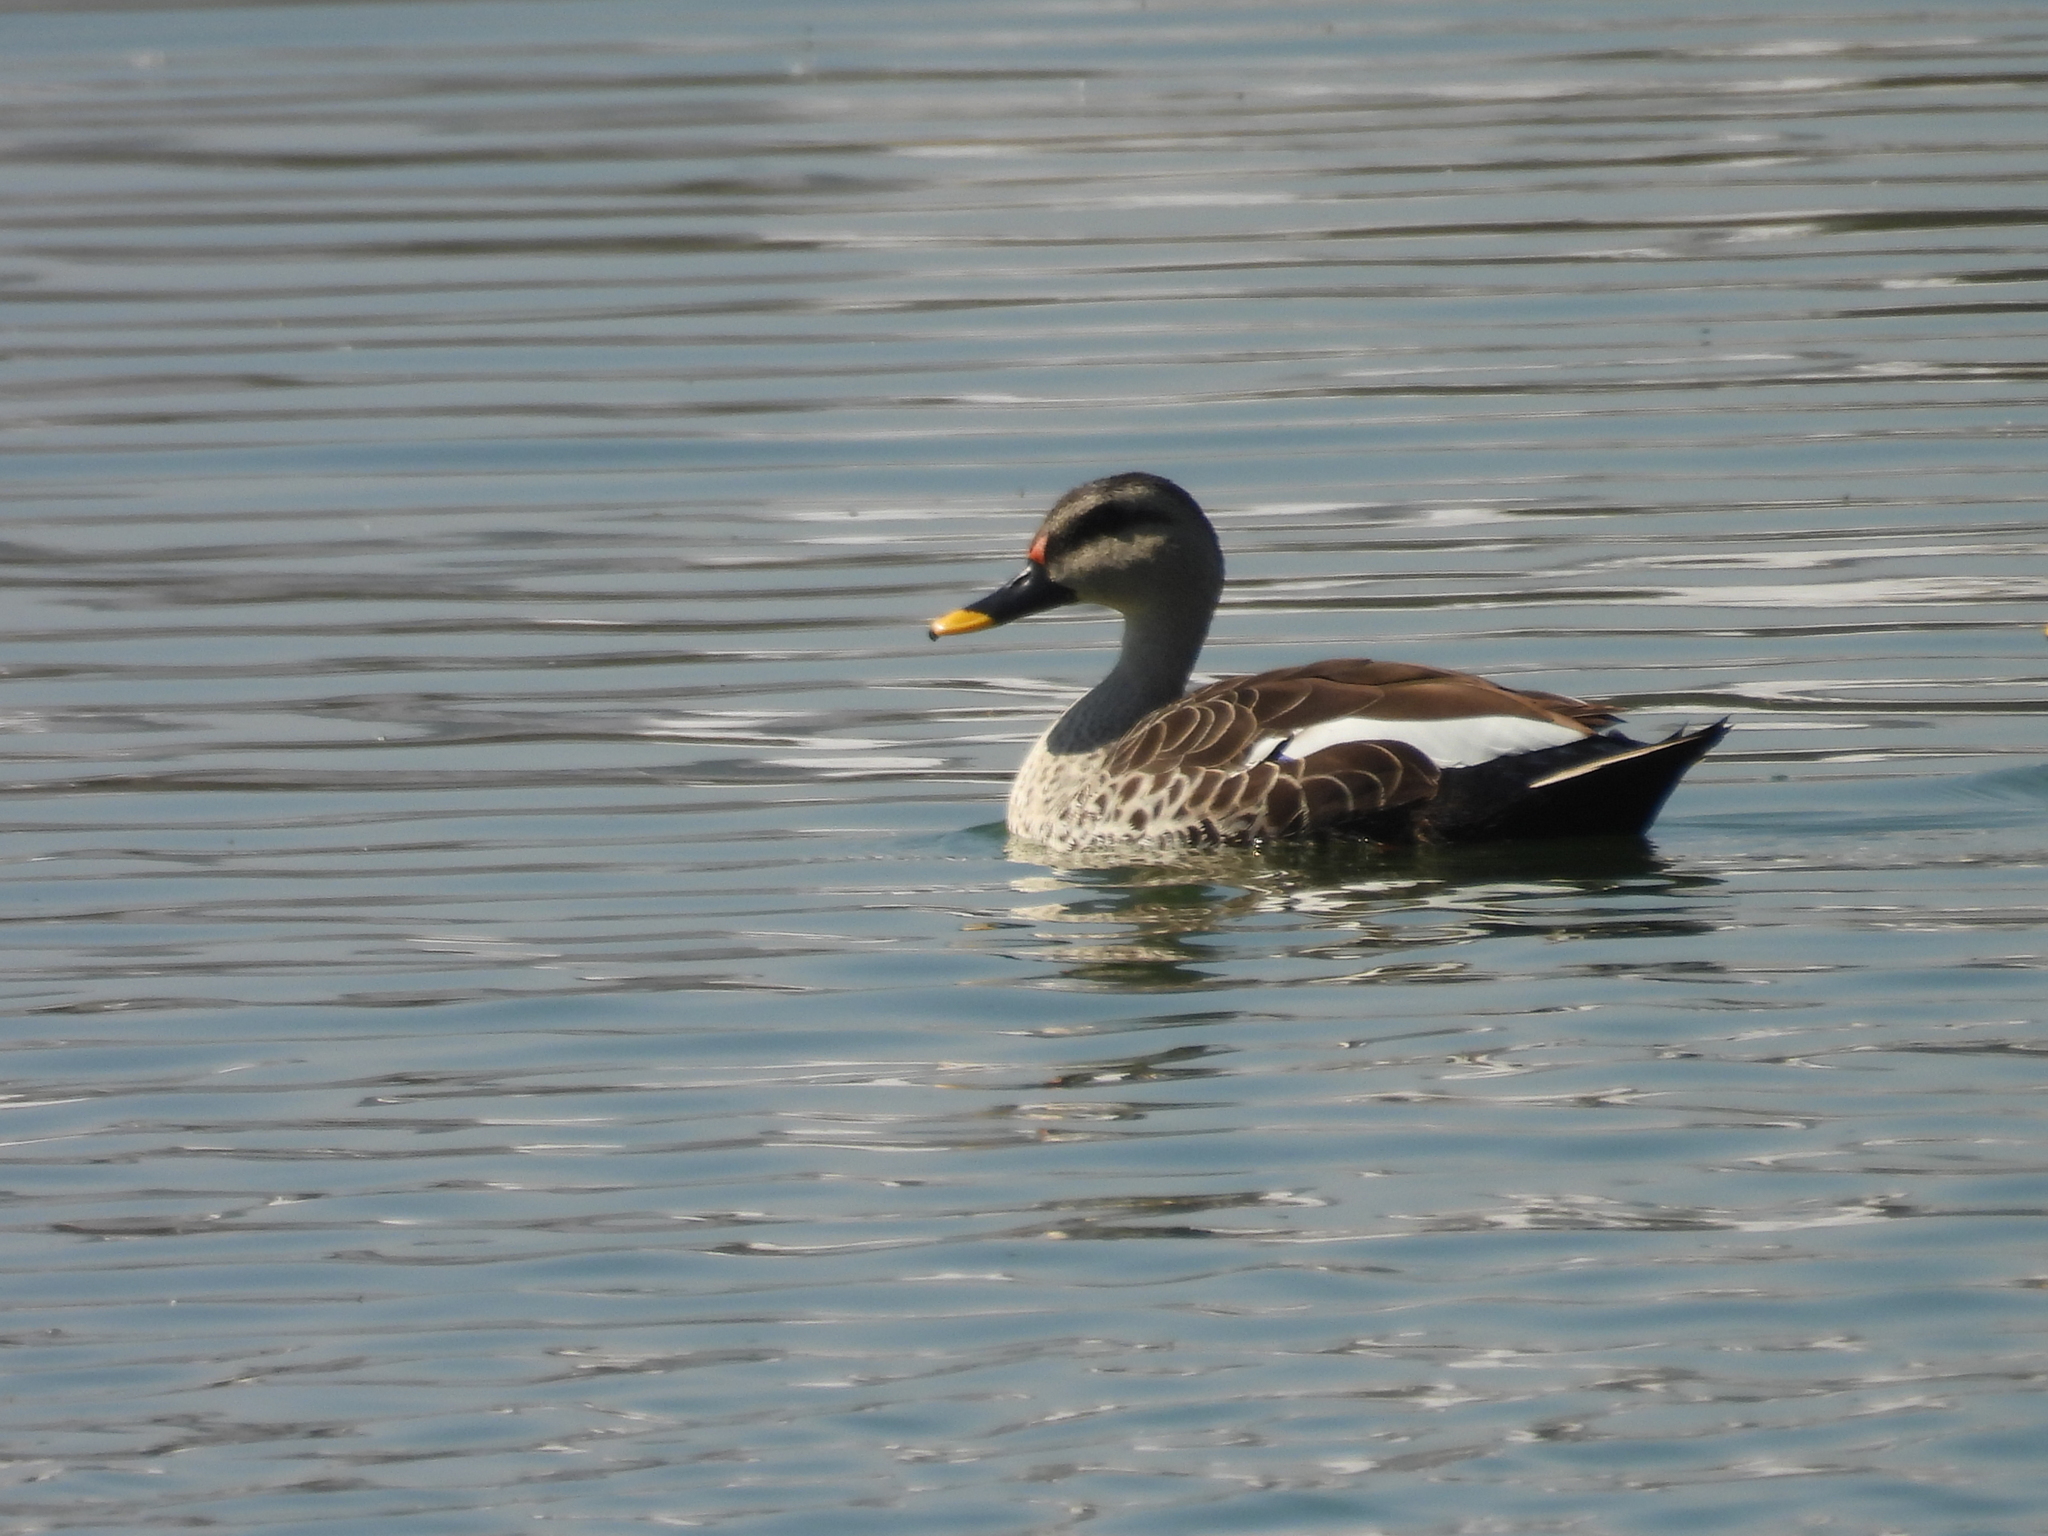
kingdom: Animalia
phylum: Chordata
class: Aves
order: Anseriformes
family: Anatidae
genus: Anas
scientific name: Anas poecilorhyncha
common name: Indian spot-billed duck
